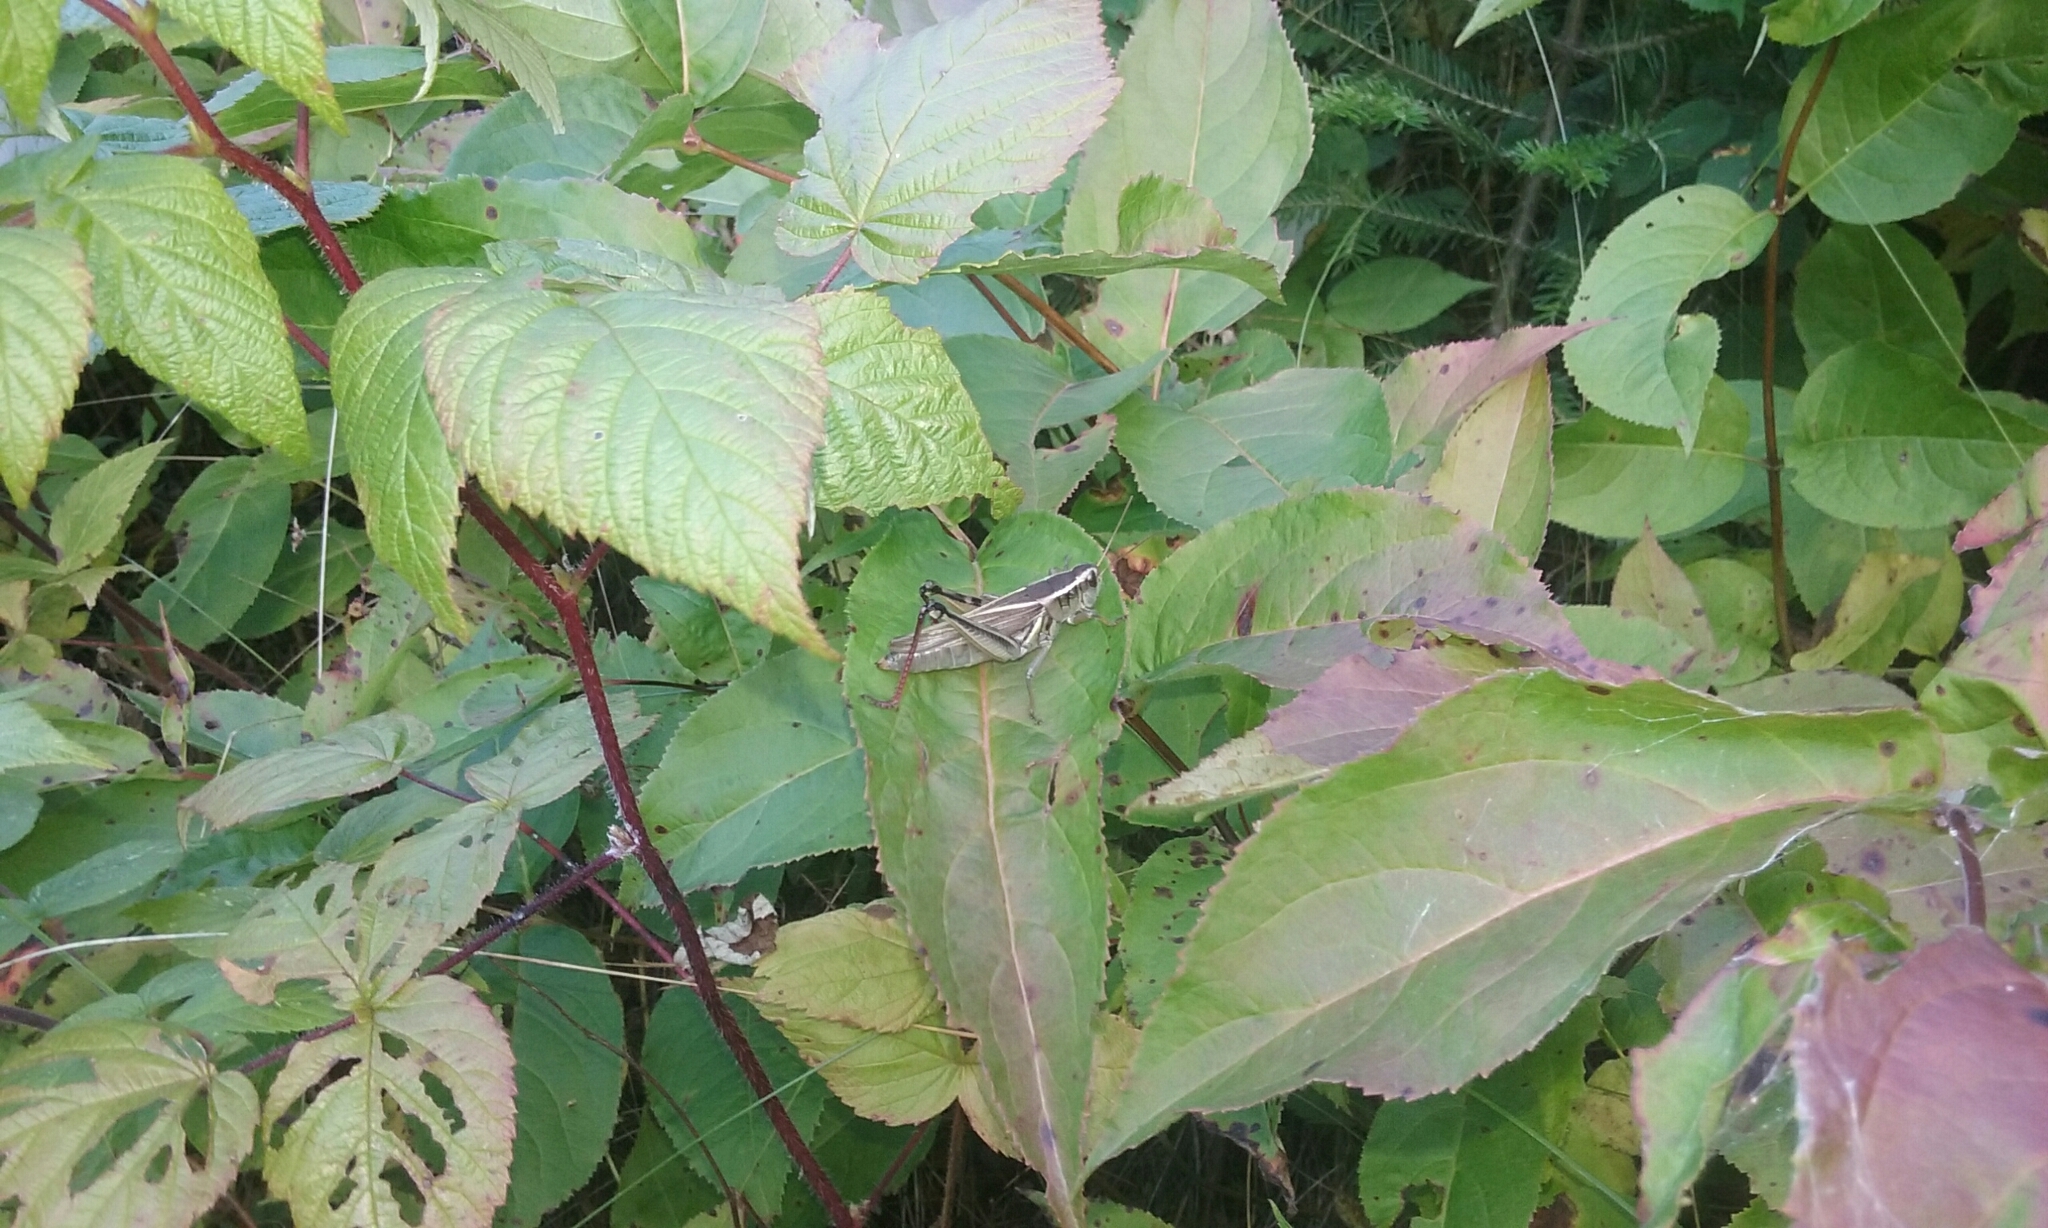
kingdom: Animalia
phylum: Arthropoda
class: Insecta
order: Orthoptera
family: Acrididae
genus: Melanoplus
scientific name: Melanoplus bivittatus
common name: Two-striped grasshopper
